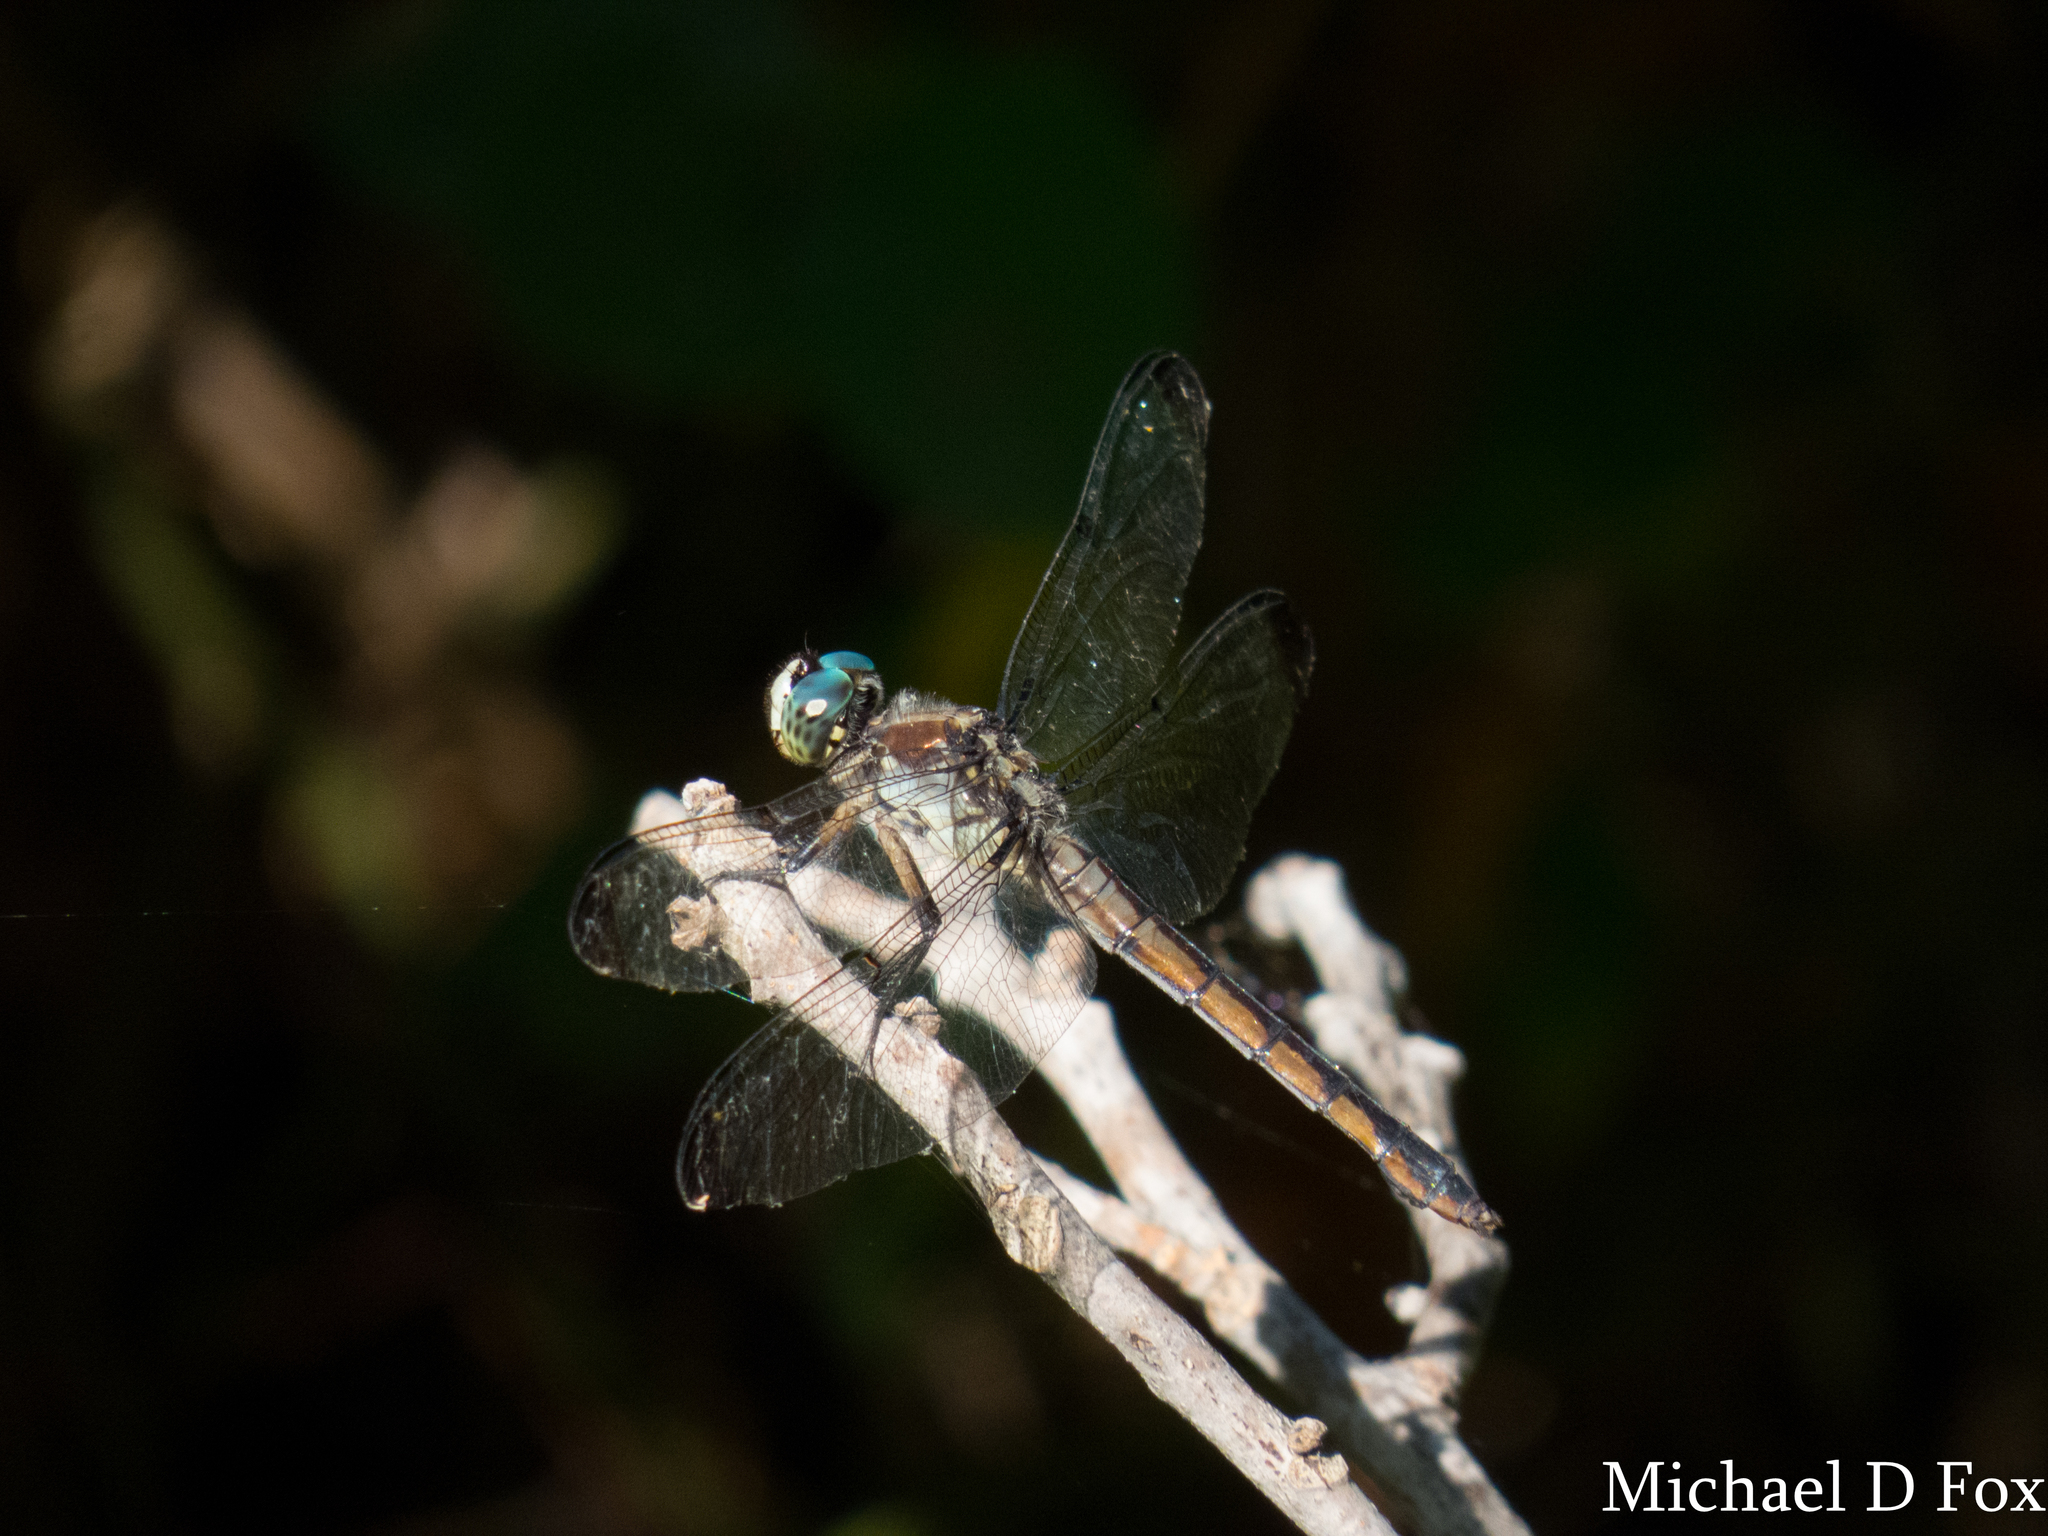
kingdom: Animalia
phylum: Arthropoda
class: Insecta
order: Odonata
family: Libellulidae
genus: Libellula
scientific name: Libellula vibrans
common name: Great blue skimmer
